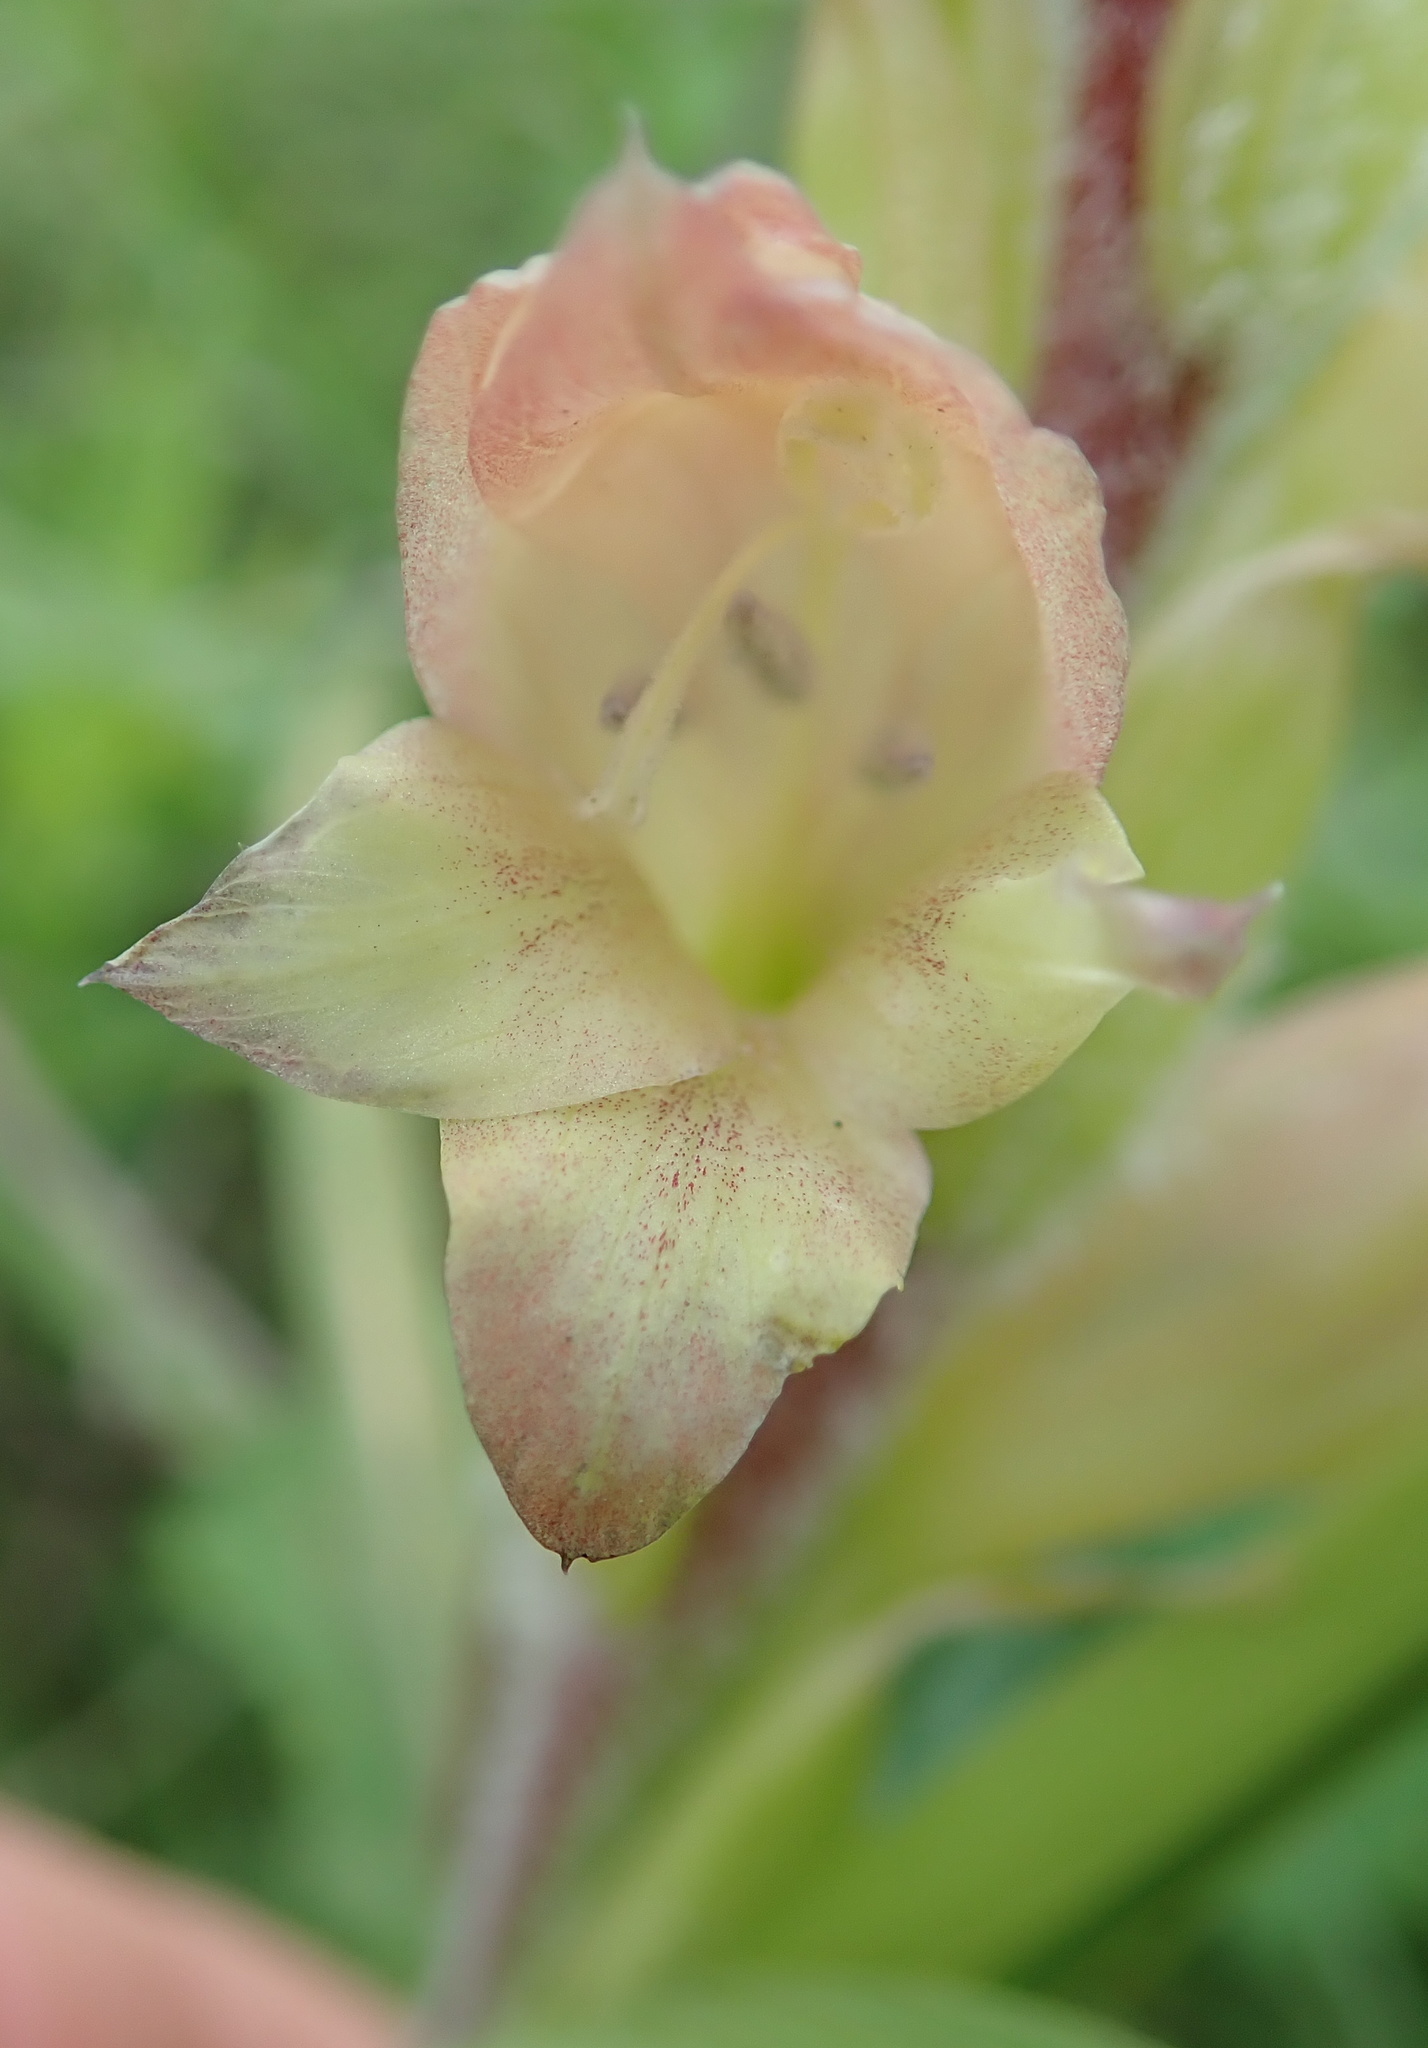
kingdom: Plantae
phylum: Tracheophyta
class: Liliopsida
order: Asparagales
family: Iridaceae
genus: Gladiolus
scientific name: Gladiolus sericeovillosus
